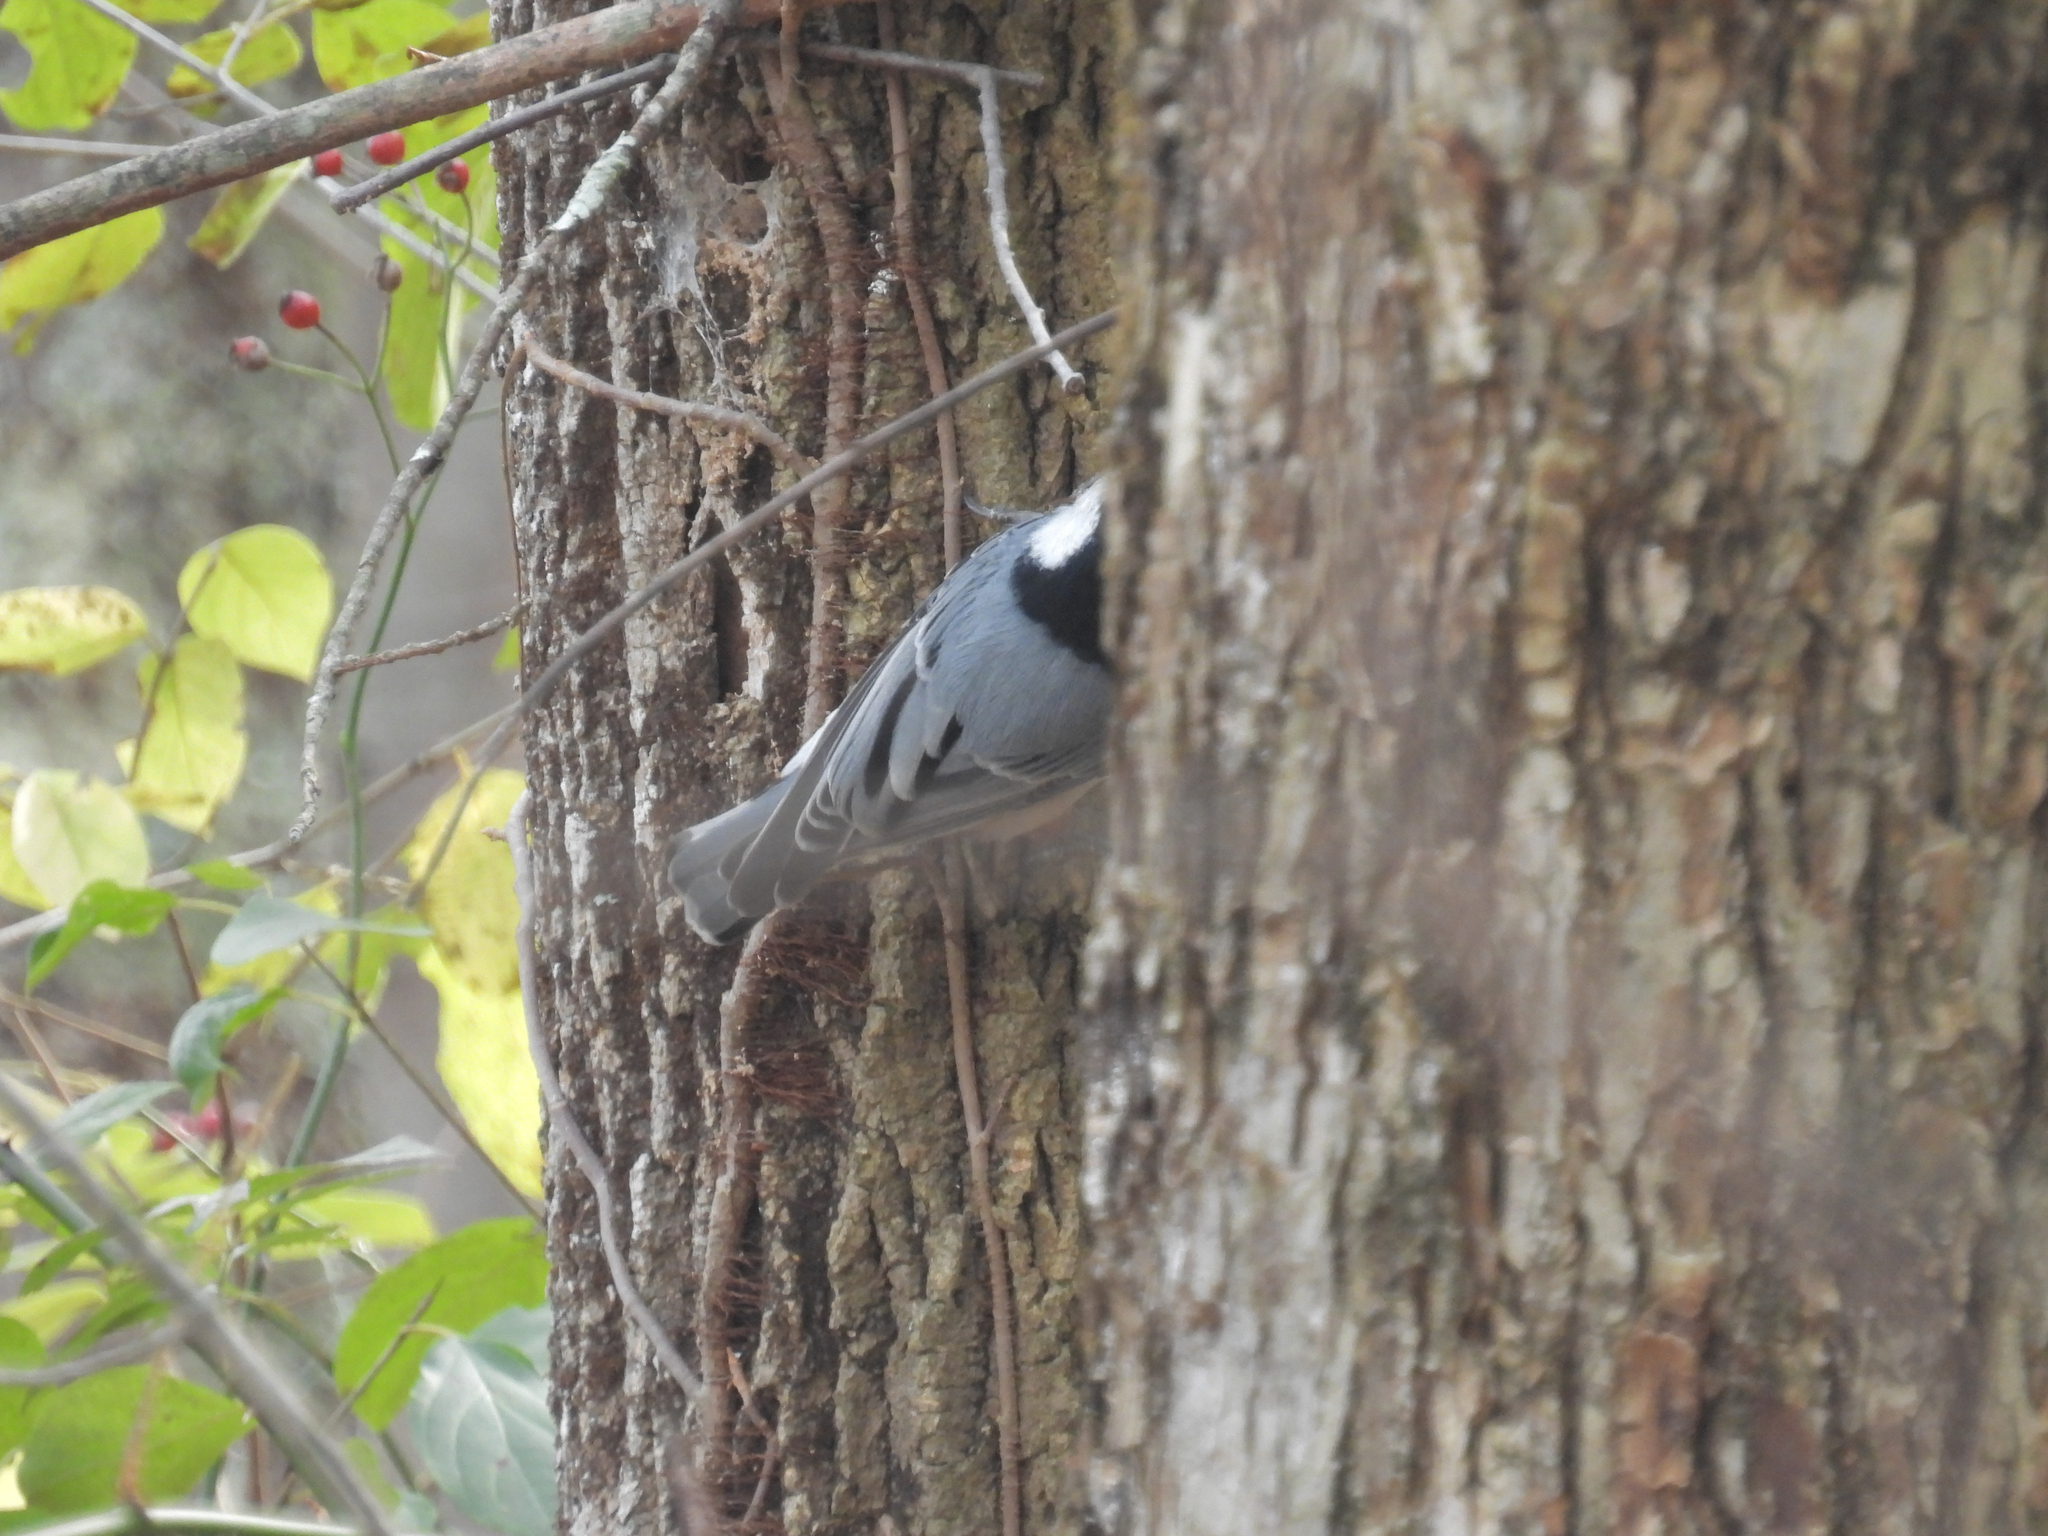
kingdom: Animalia
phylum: Chordata
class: Aves
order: Passeriformes
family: Sittidae
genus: Sitta
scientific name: Sitta carolinensis
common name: White-breasted nuthatch
